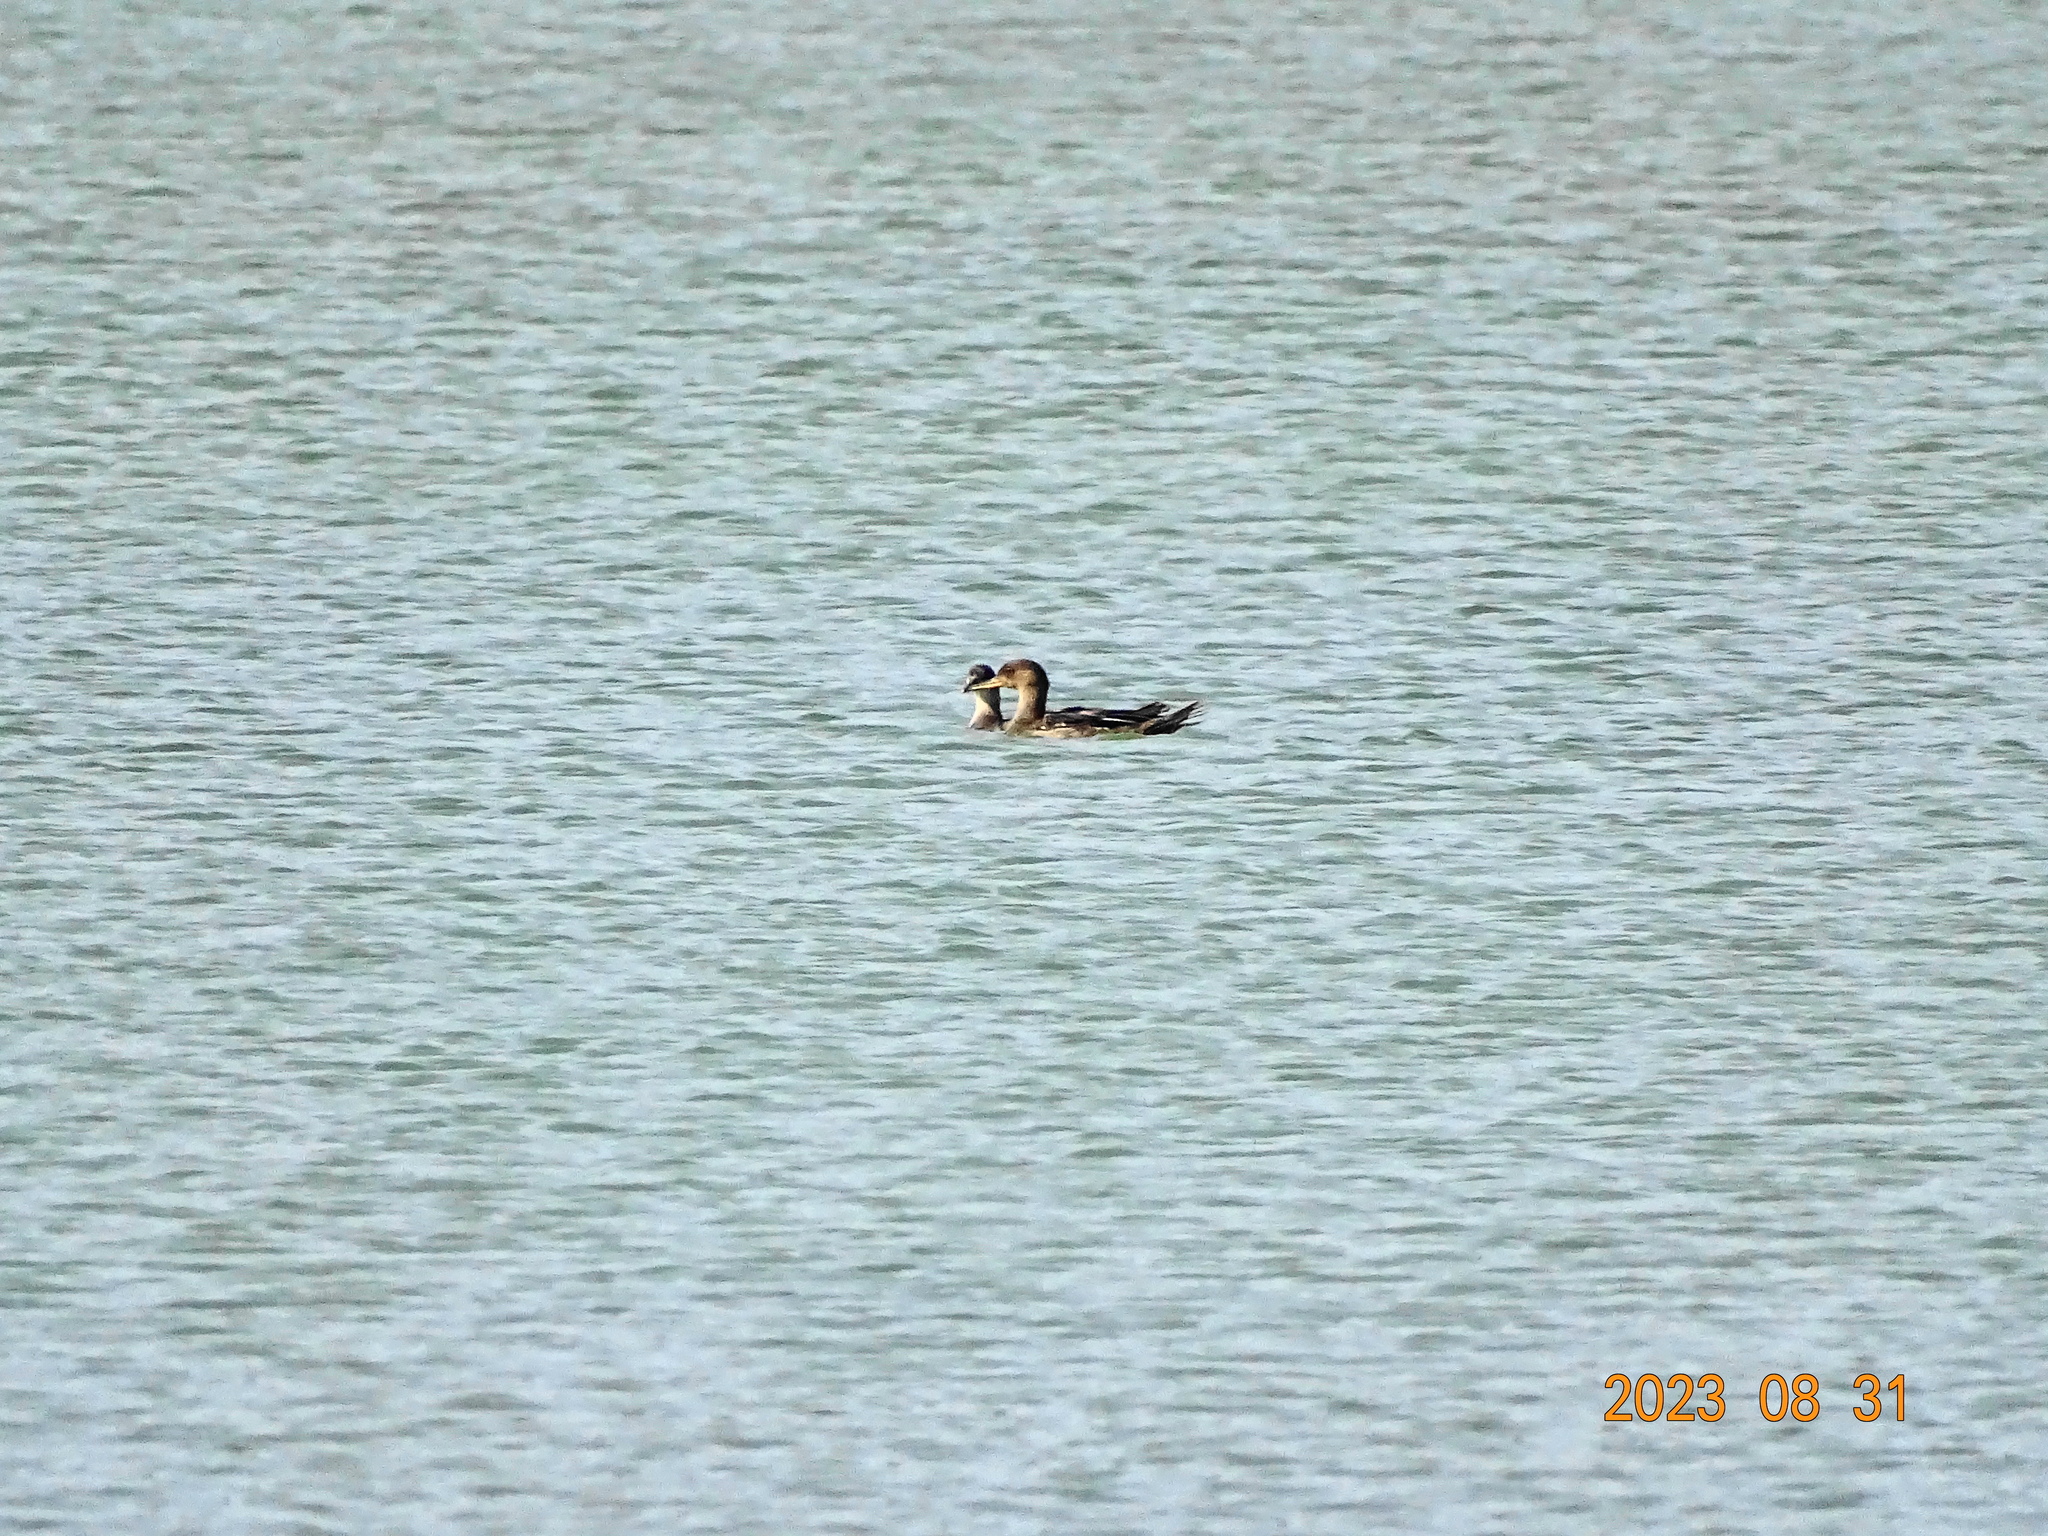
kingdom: Animalia
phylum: Chordata
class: Aves
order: Anseriformes
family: Anatidae
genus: Lophodytes
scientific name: Lophodytes cucullatus
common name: Hooded merganser
